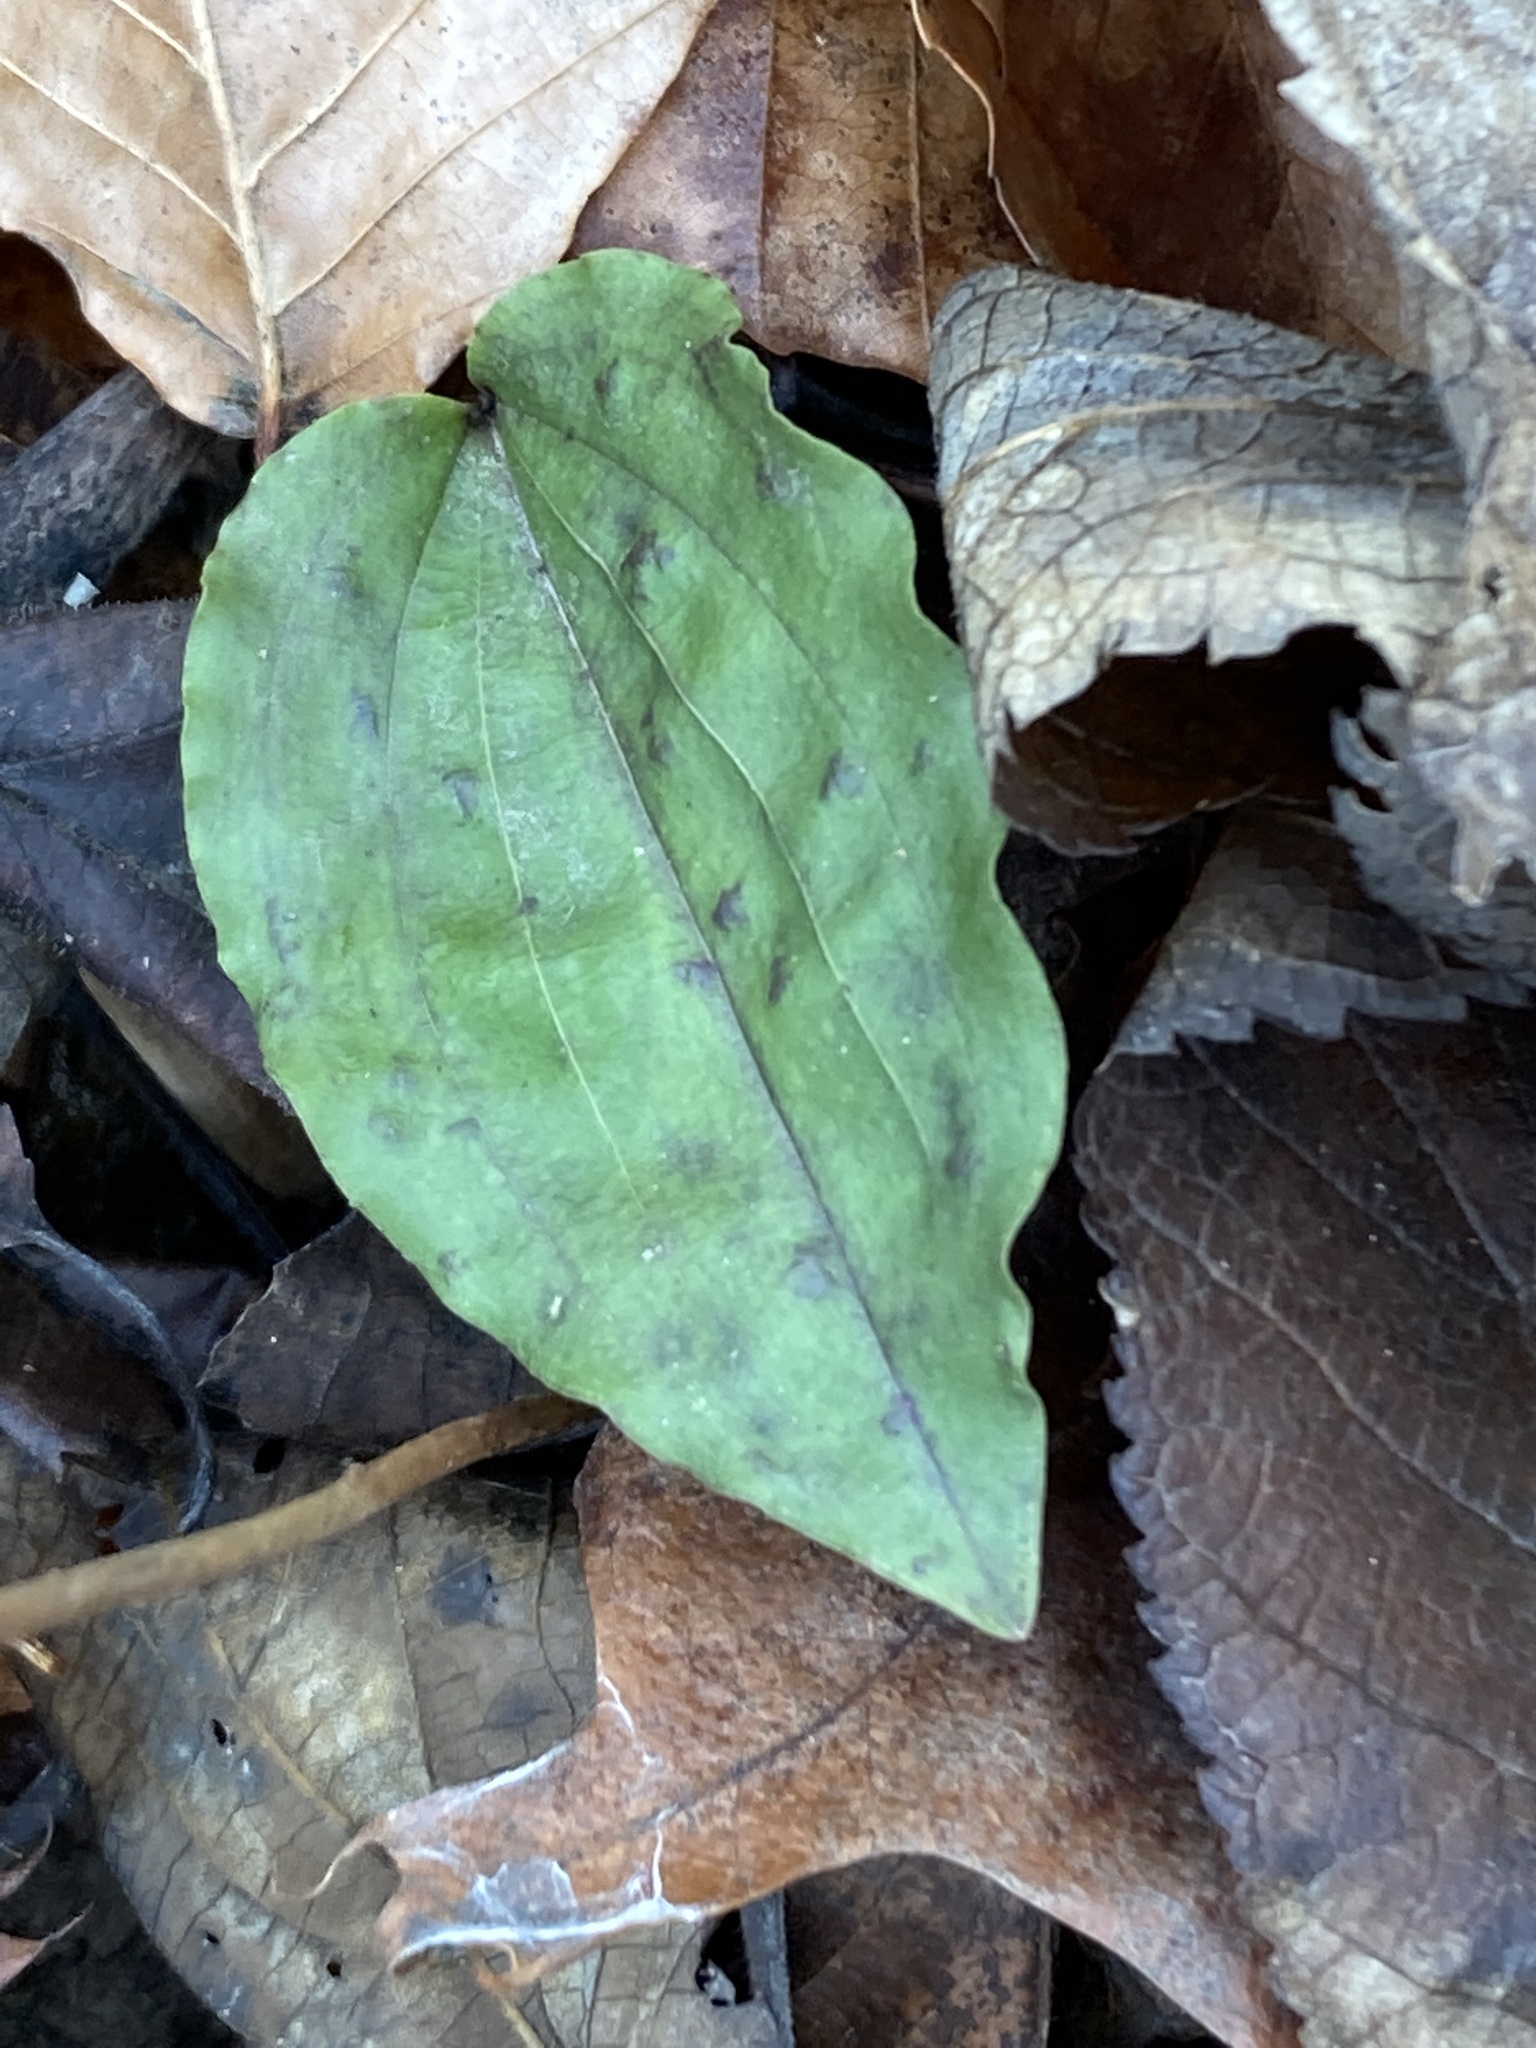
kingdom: Plantae
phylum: Tracheophyta
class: Liliopsida
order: Asparagales
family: Orchidaceae
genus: Tipularia
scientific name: Tipularia discolor
